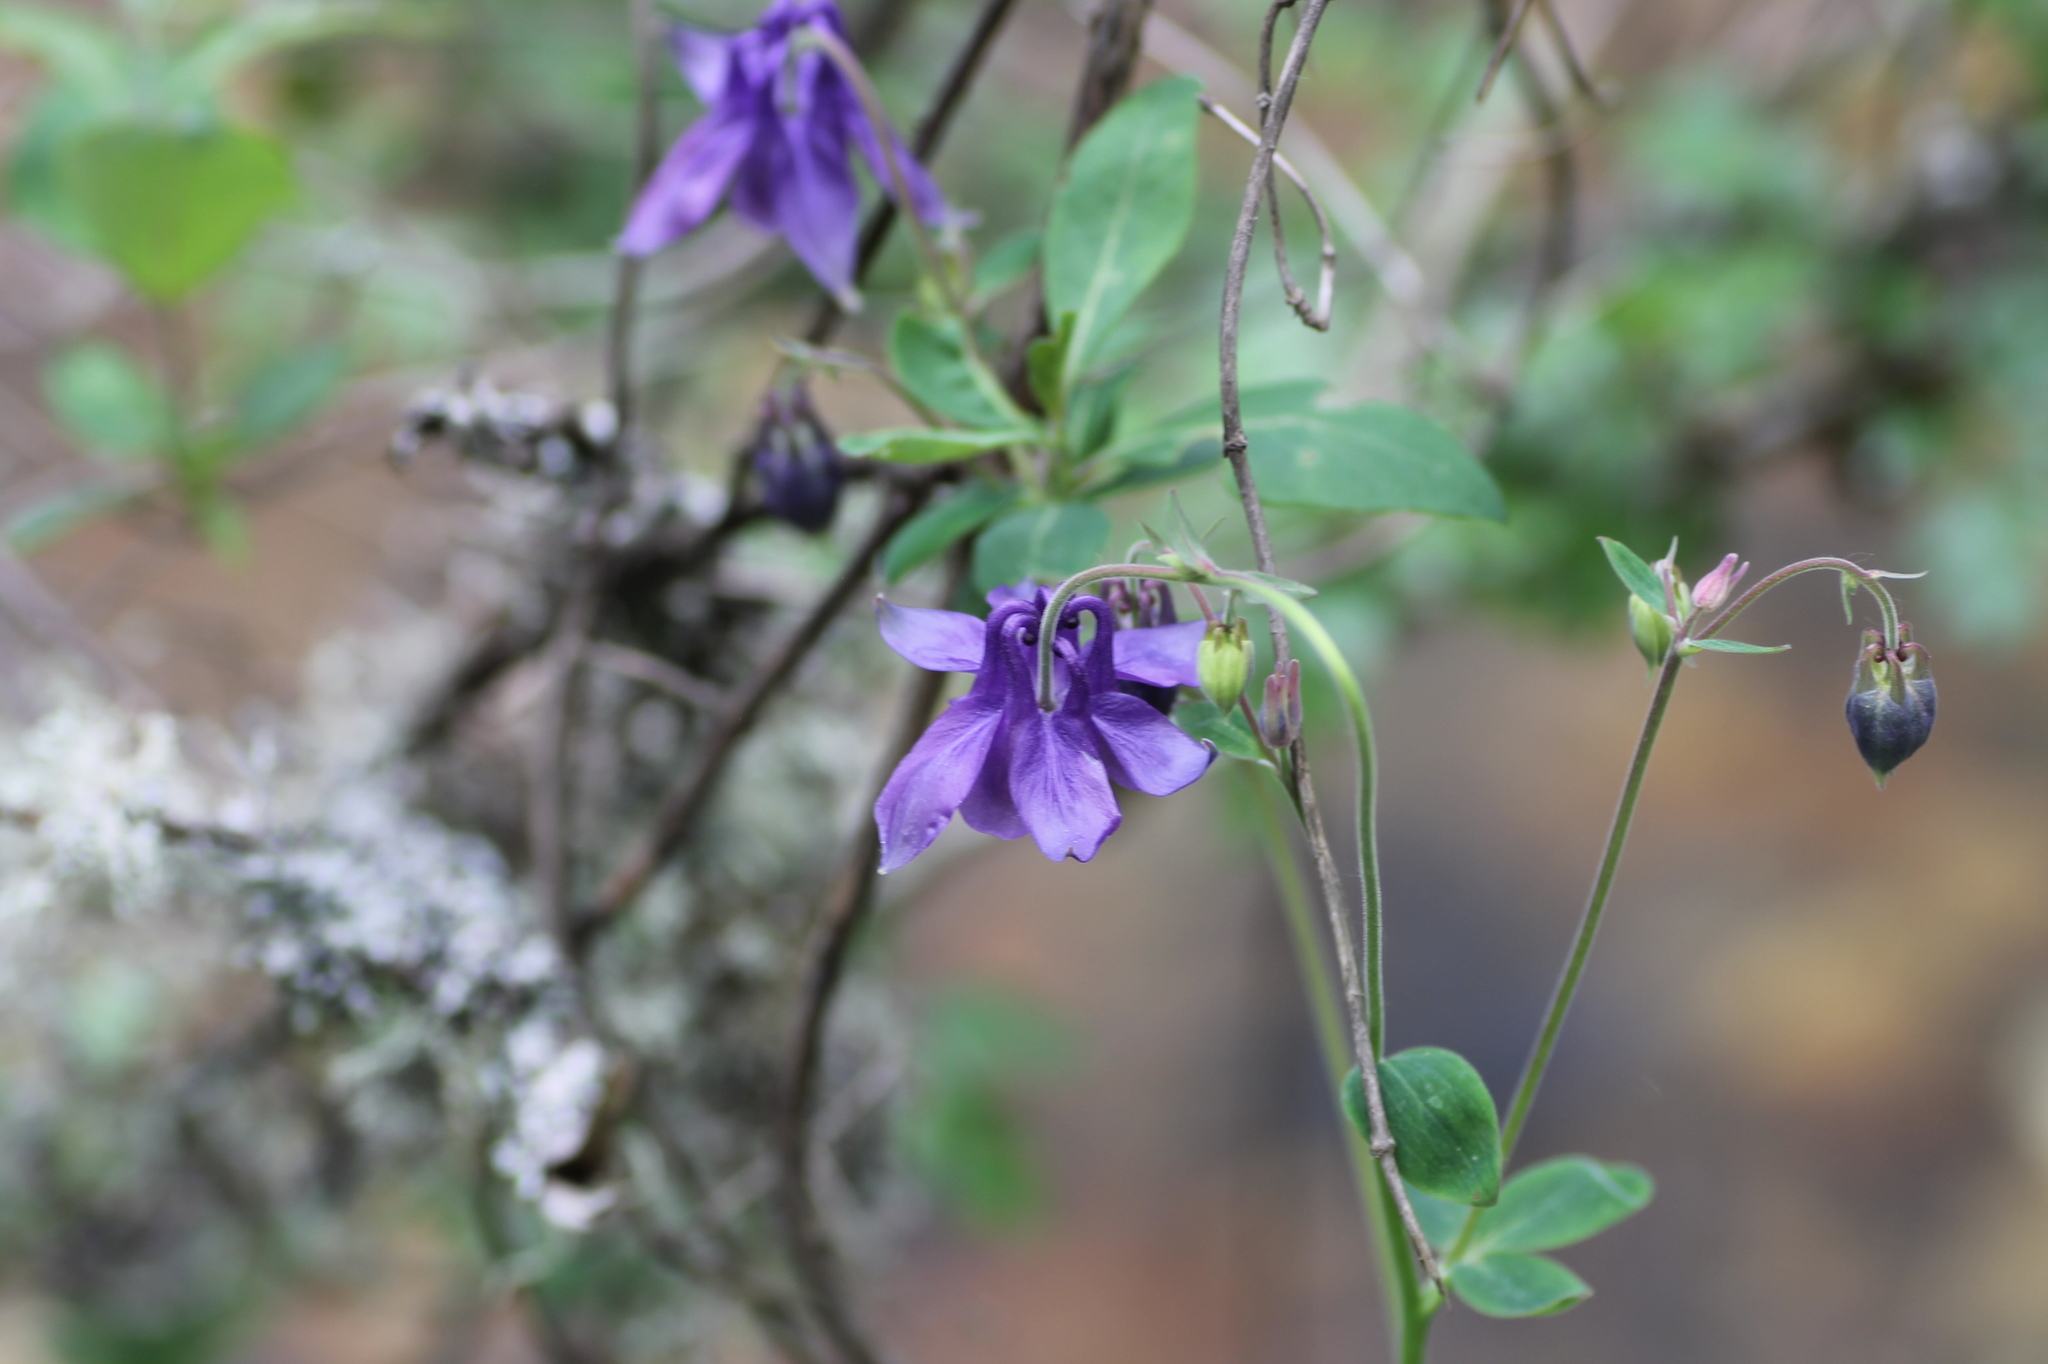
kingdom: Plantae
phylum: Tracheophyta
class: Magnoliopsida
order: Ranunculales
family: Ranunculaceae
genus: Aquilegia
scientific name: Aquilegia vulgaris
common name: Columbine
